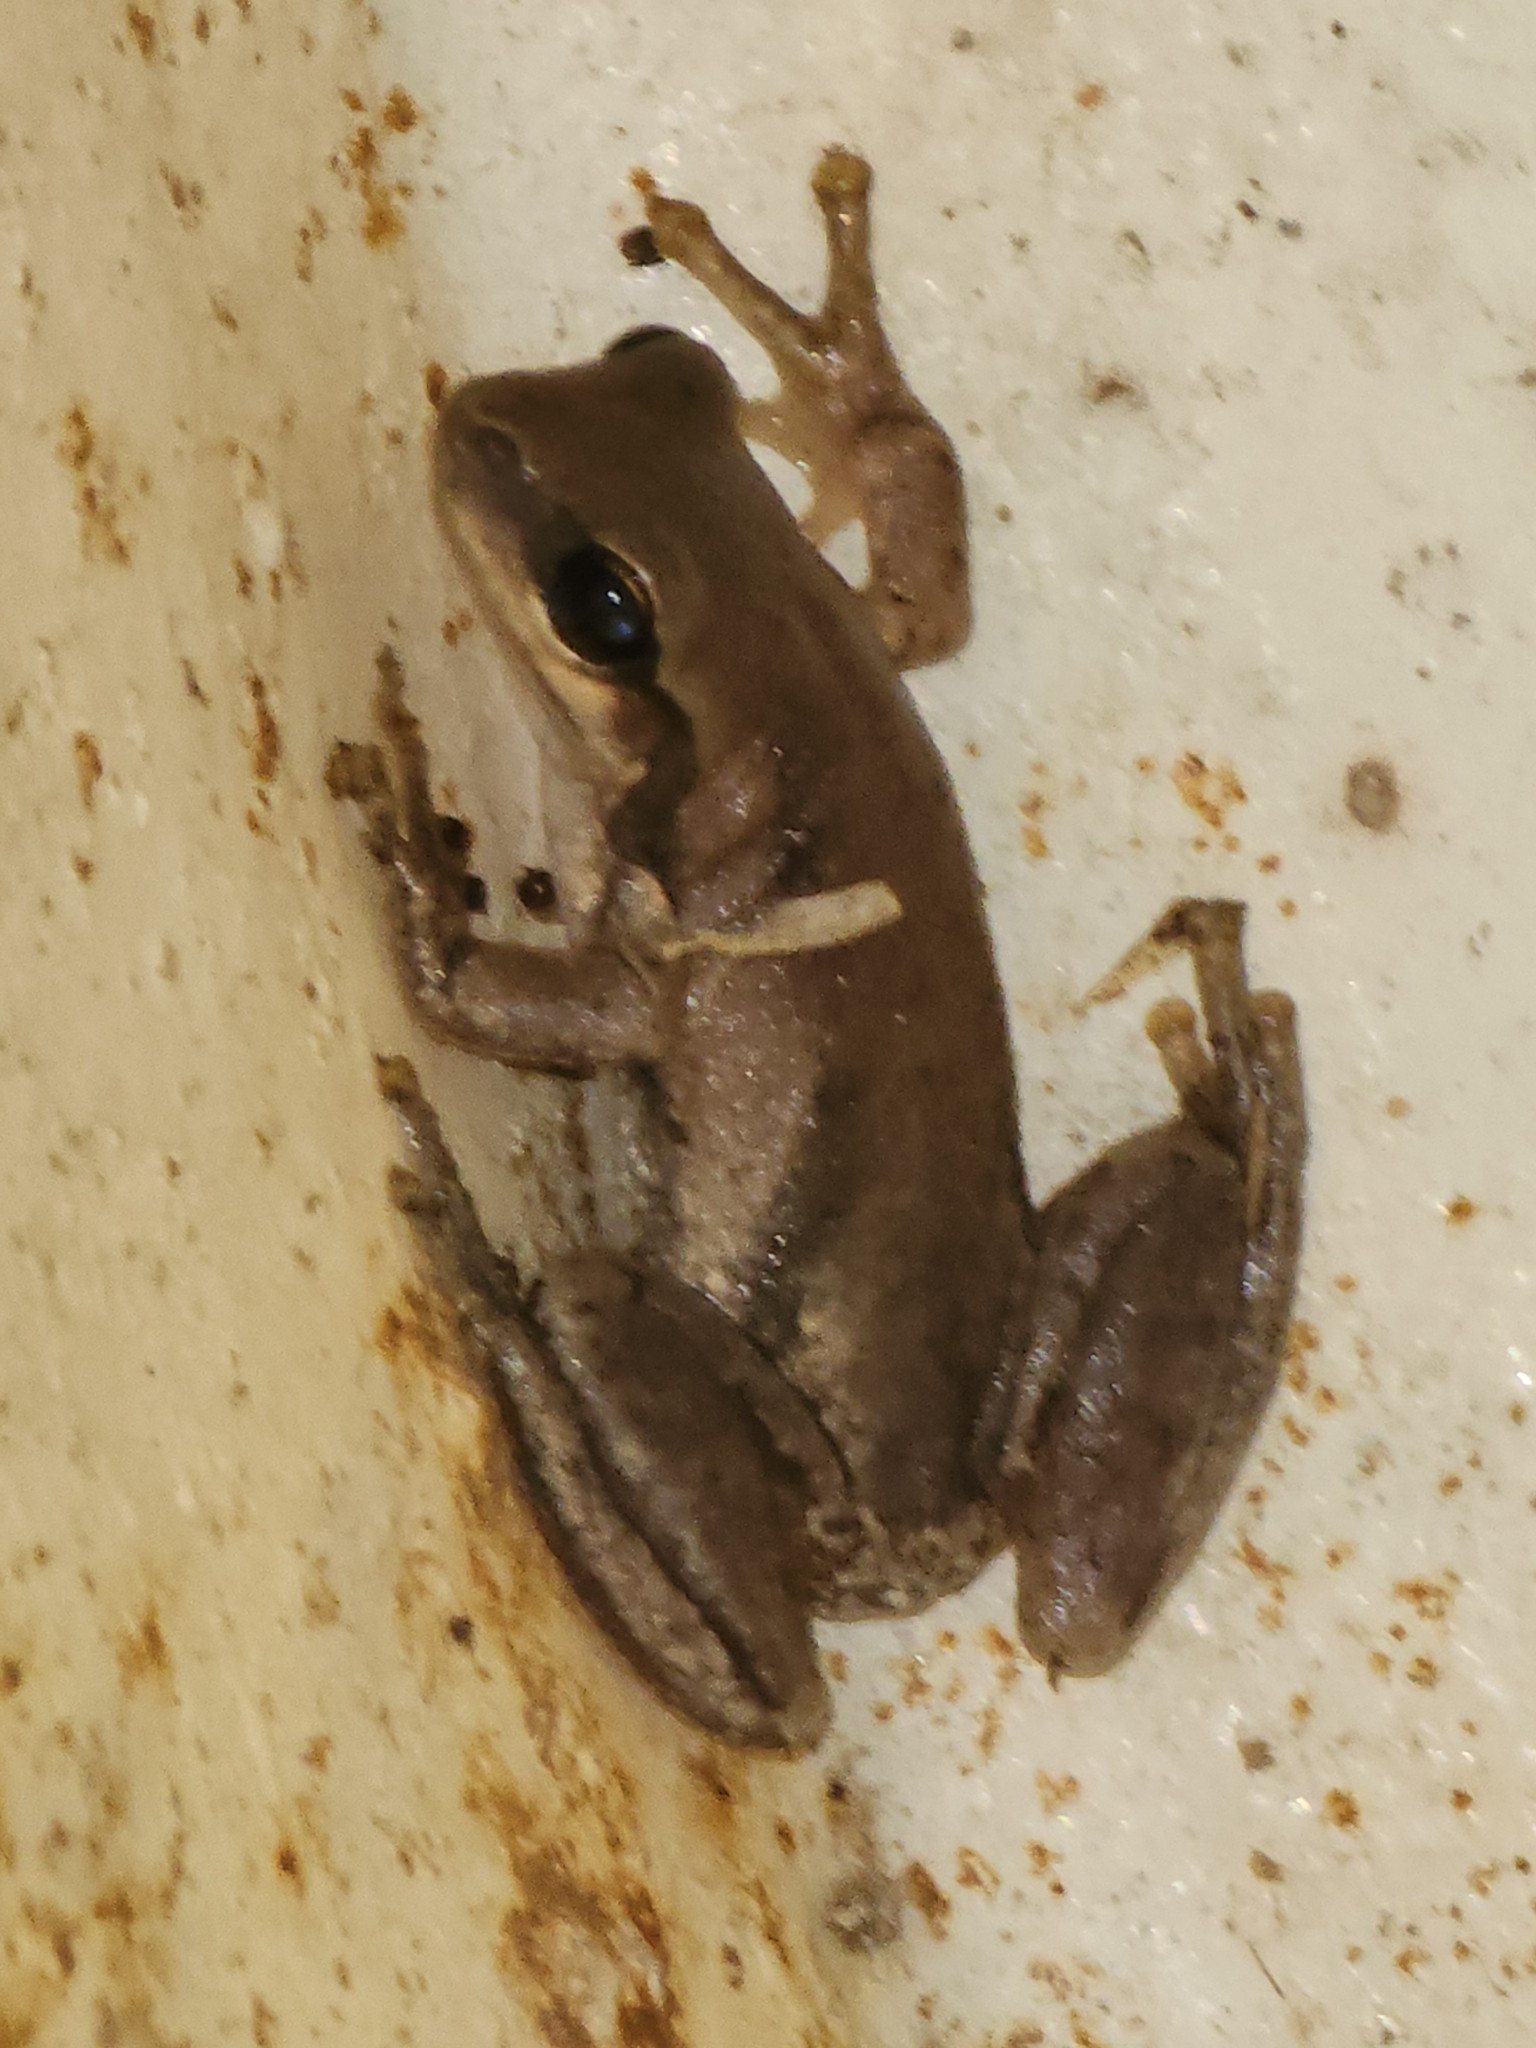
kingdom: Animalia
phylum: Chordata
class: Amphibia
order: Anura
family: Pelodryadidae
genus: Litoria
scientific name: Litoria rubella
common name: Desert tree frog
